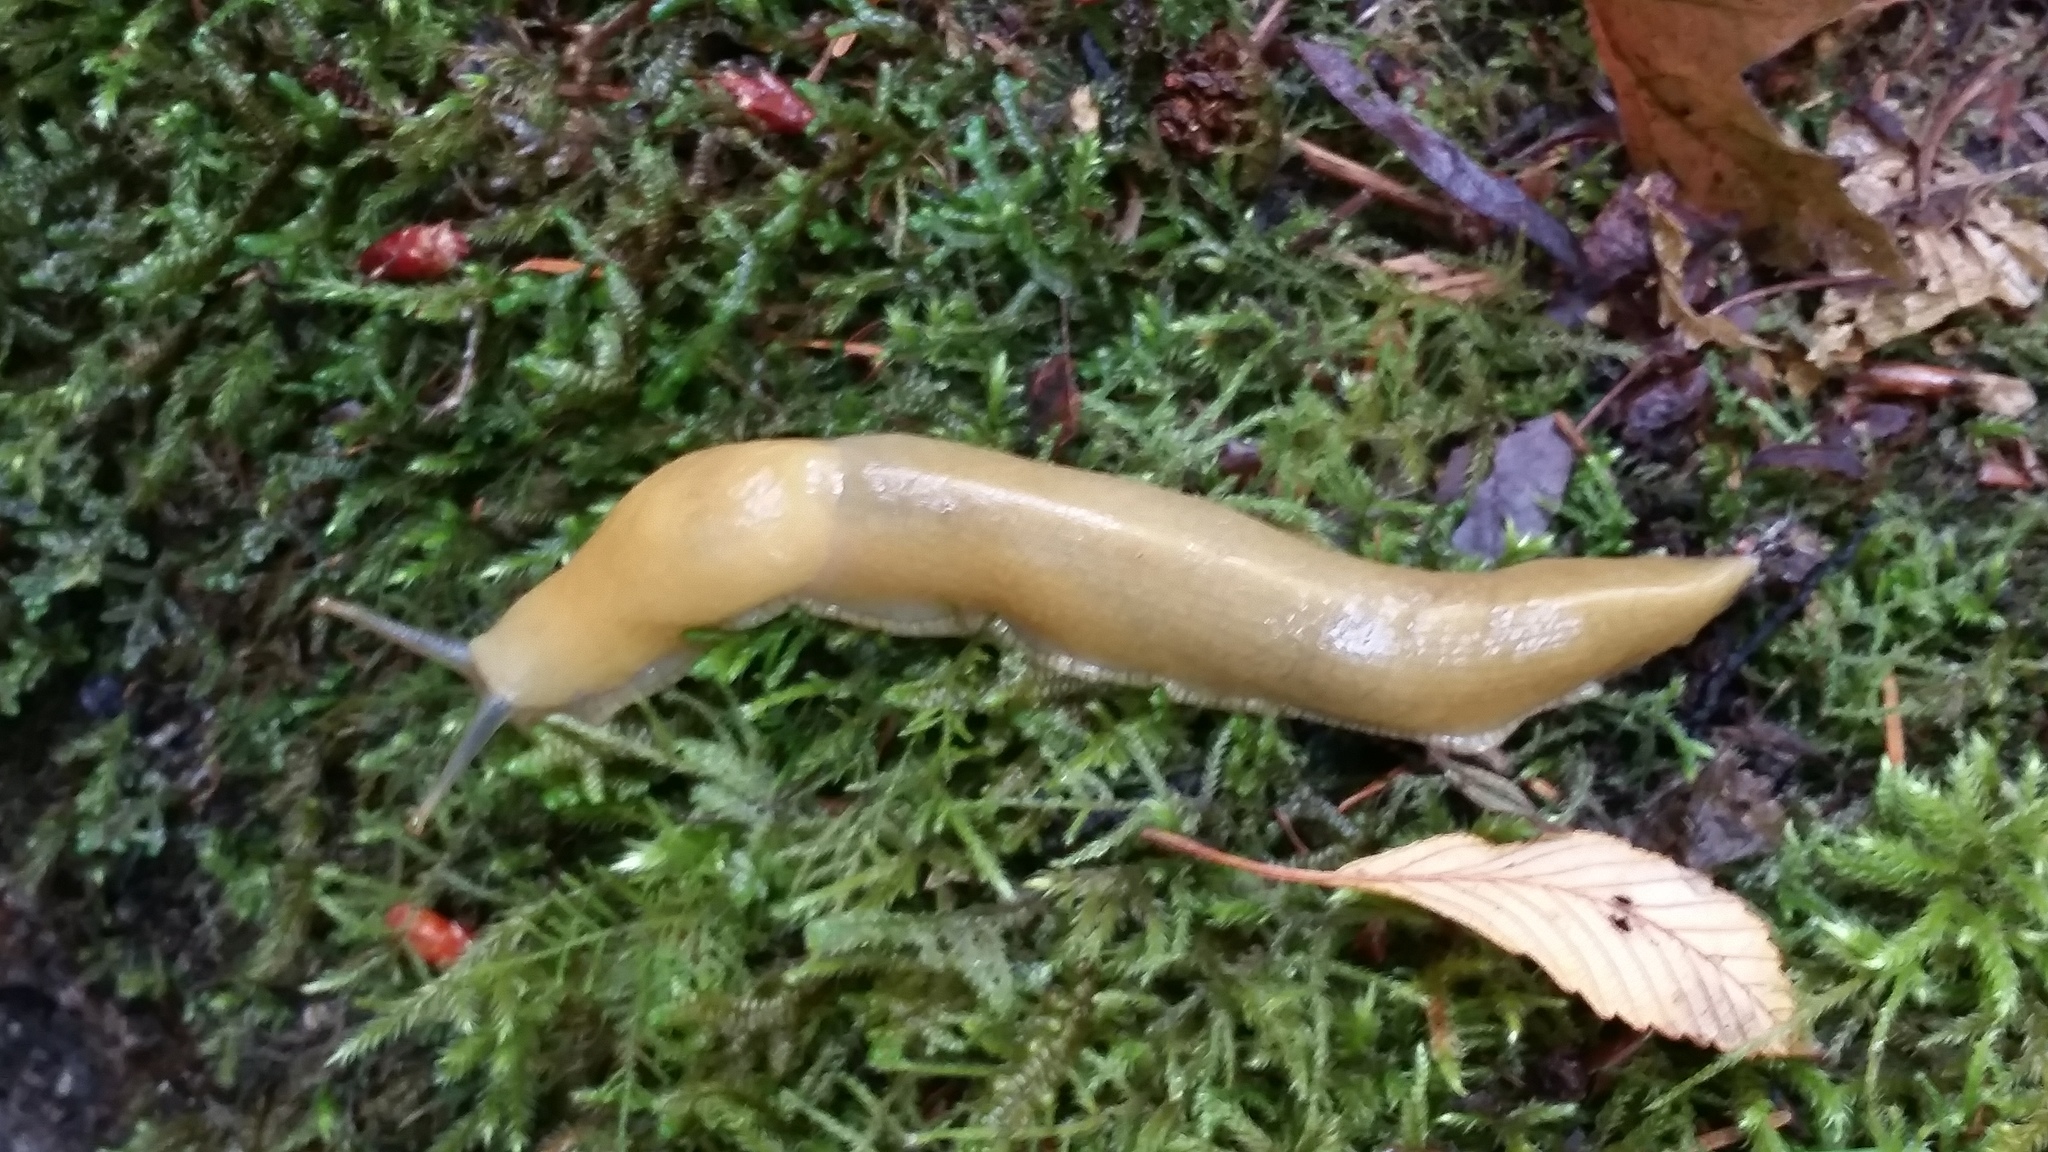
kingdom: Animalia
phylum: Mollusca
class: Gastropoda
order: Stylommatophora
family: Ariolimacidae
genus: Ariolimax
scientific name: Ariolimax columbianus
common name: Pacific banana slug
